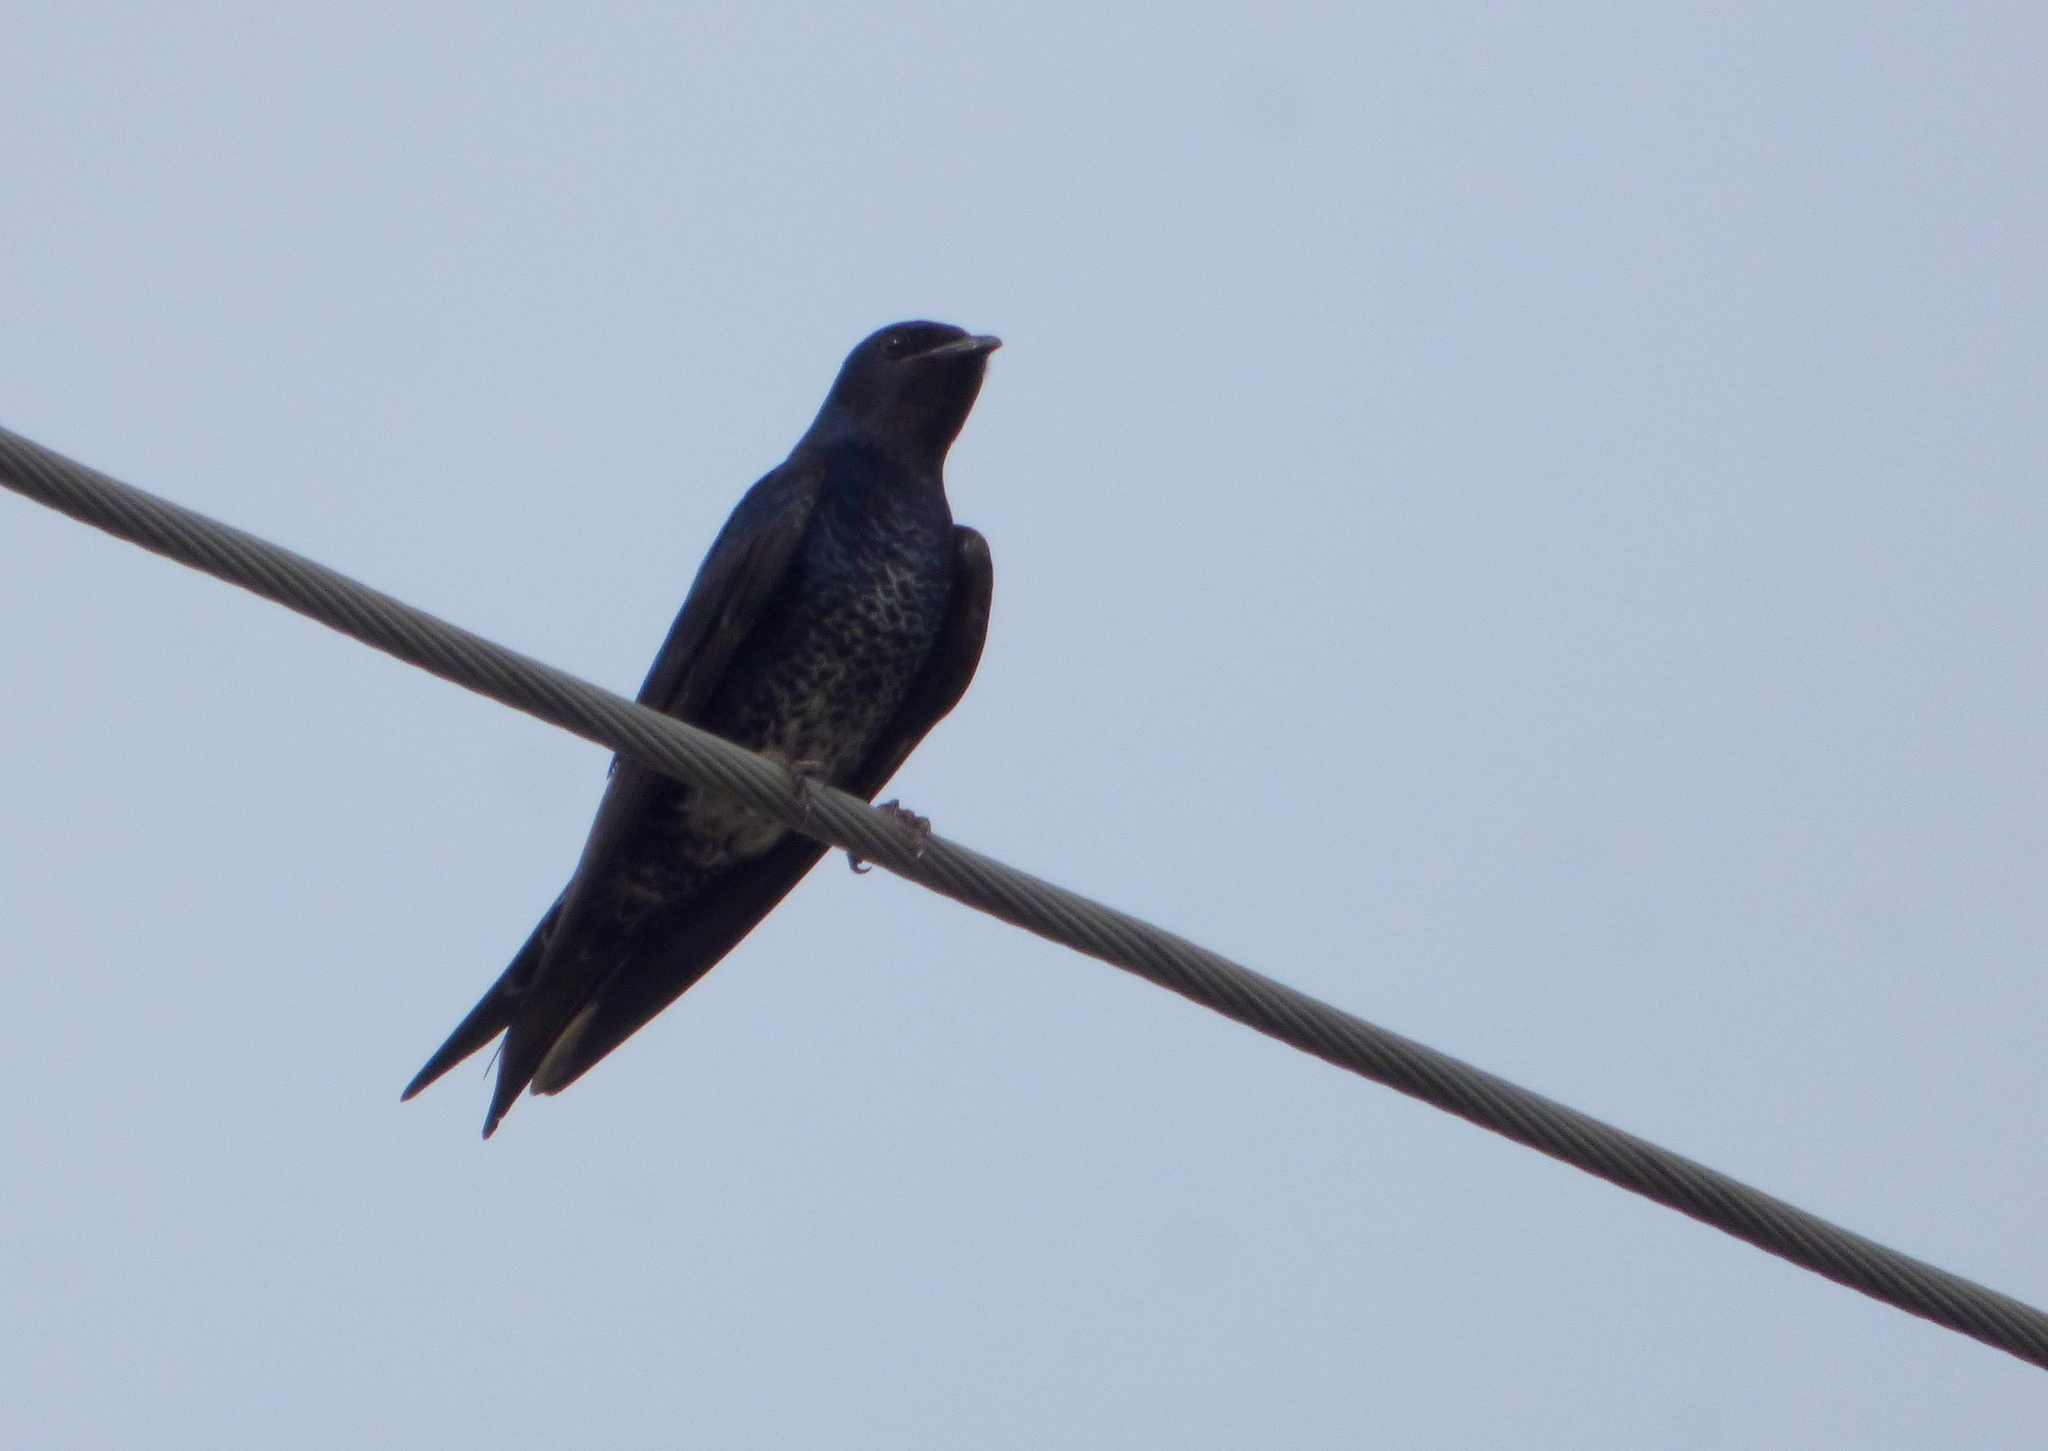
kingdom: Animalia
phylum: Chordata
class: Aves
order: Passeriformes
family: Hirundinidae
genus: Progne
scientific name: Progne elegans
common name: Southern martin
